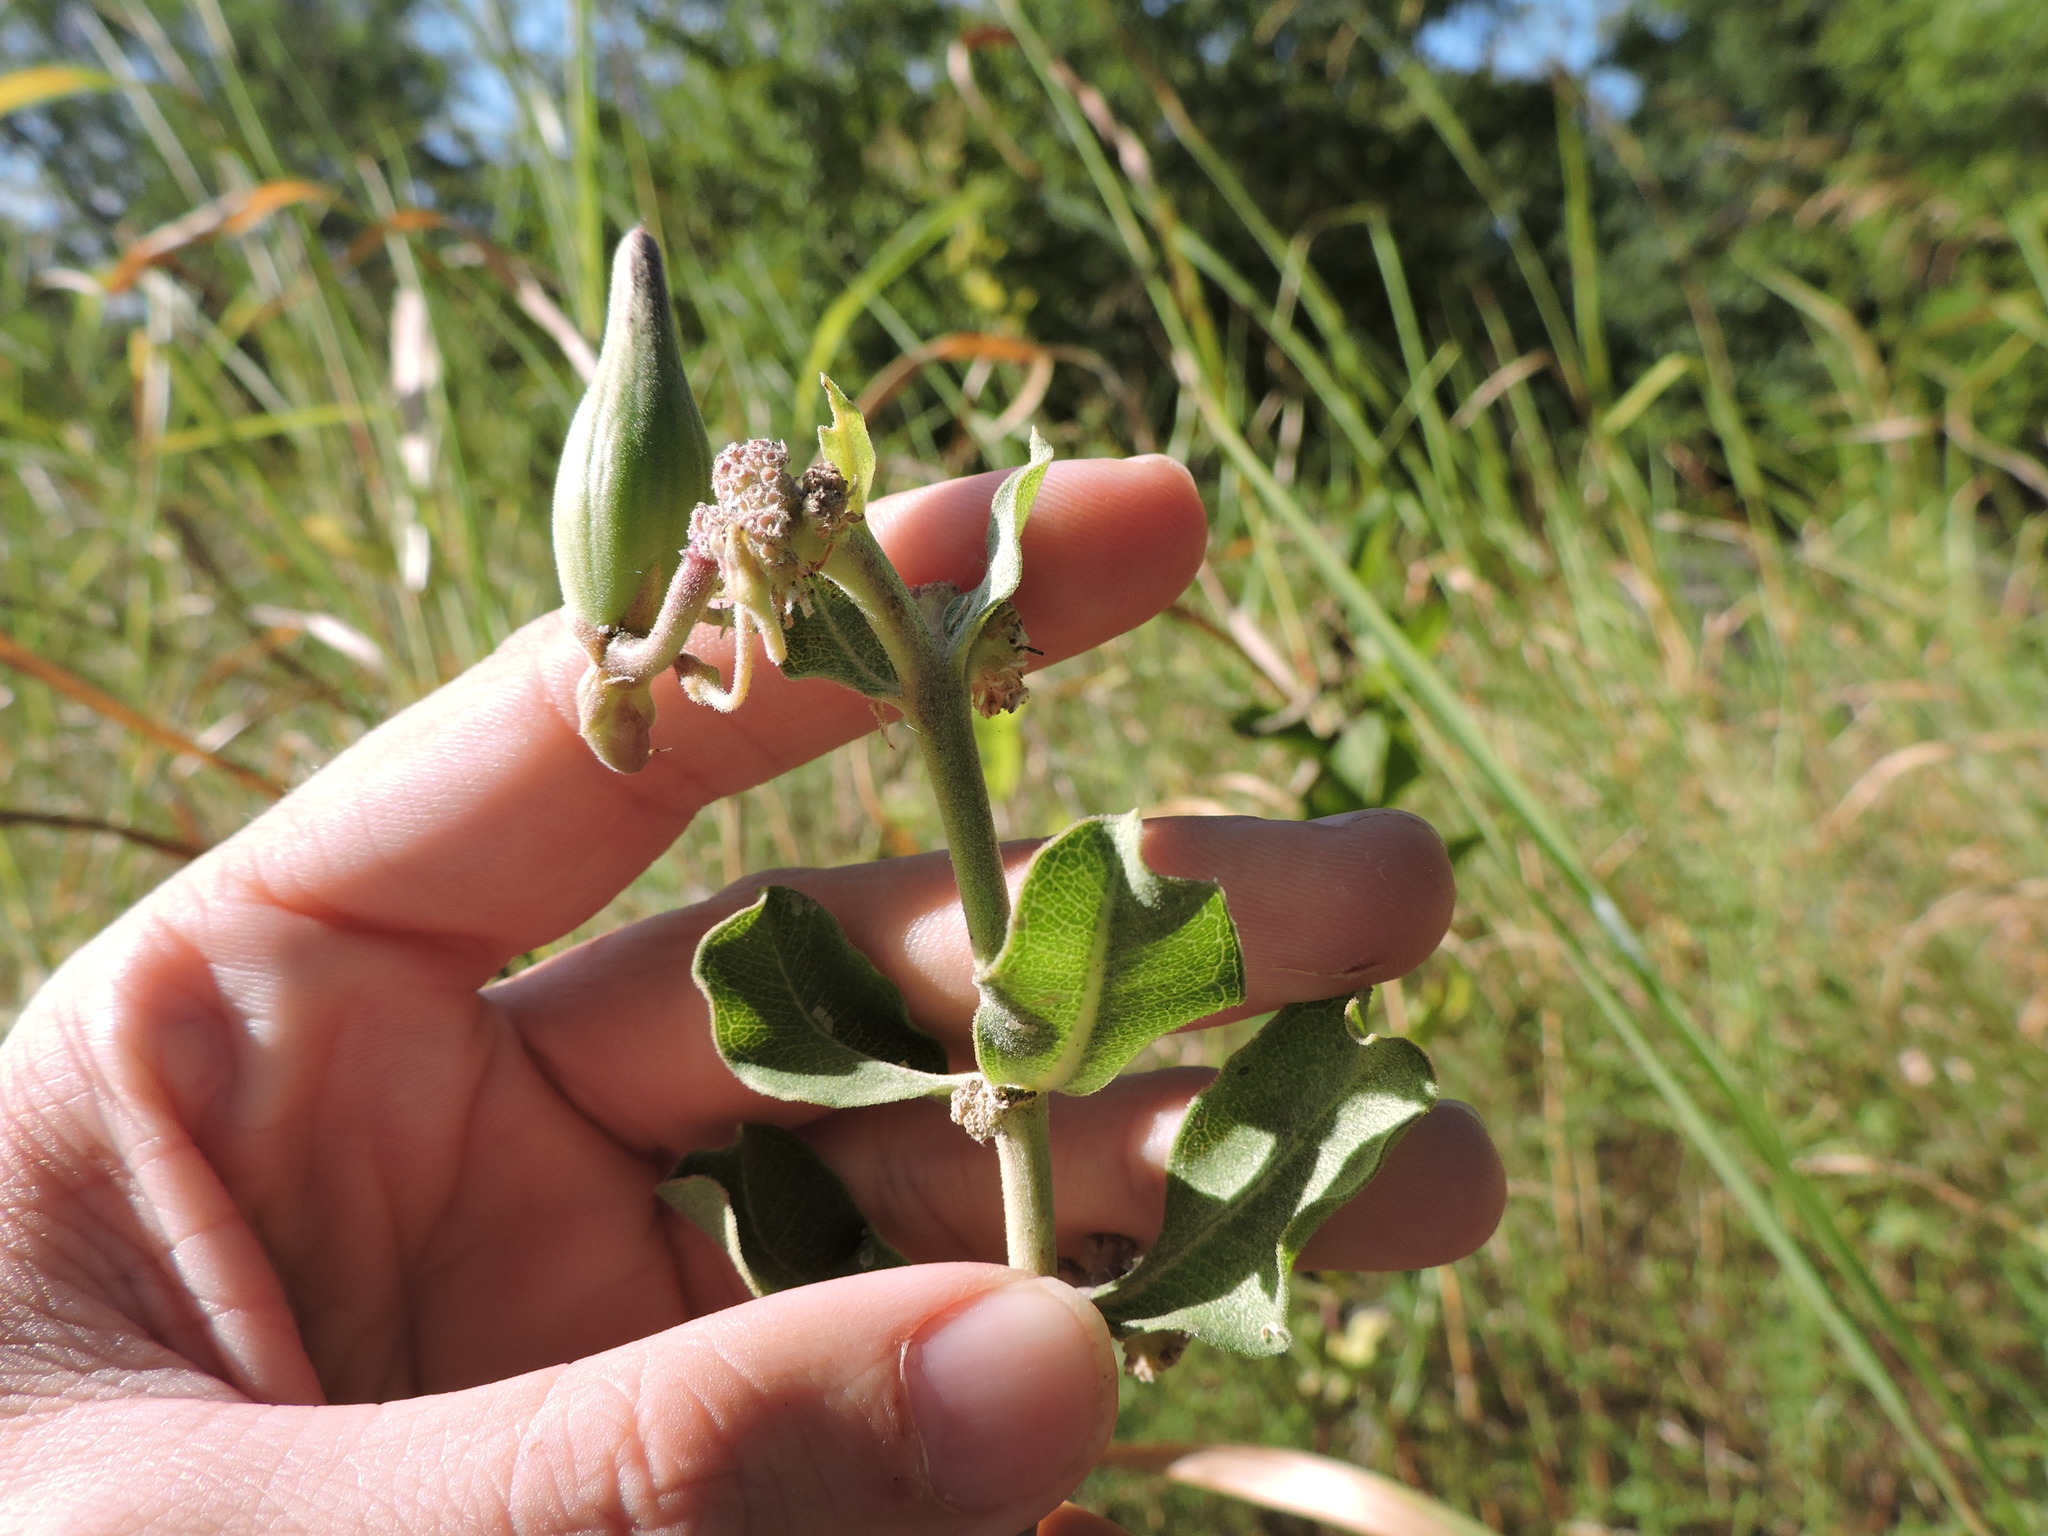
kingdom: Plantae
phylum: Tracheophyta
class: Magnoliopsida
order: Gentianales
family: Apocynaceae
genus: Asclepias
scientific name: Asclepias viridiflora
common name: Green comet milkweed
